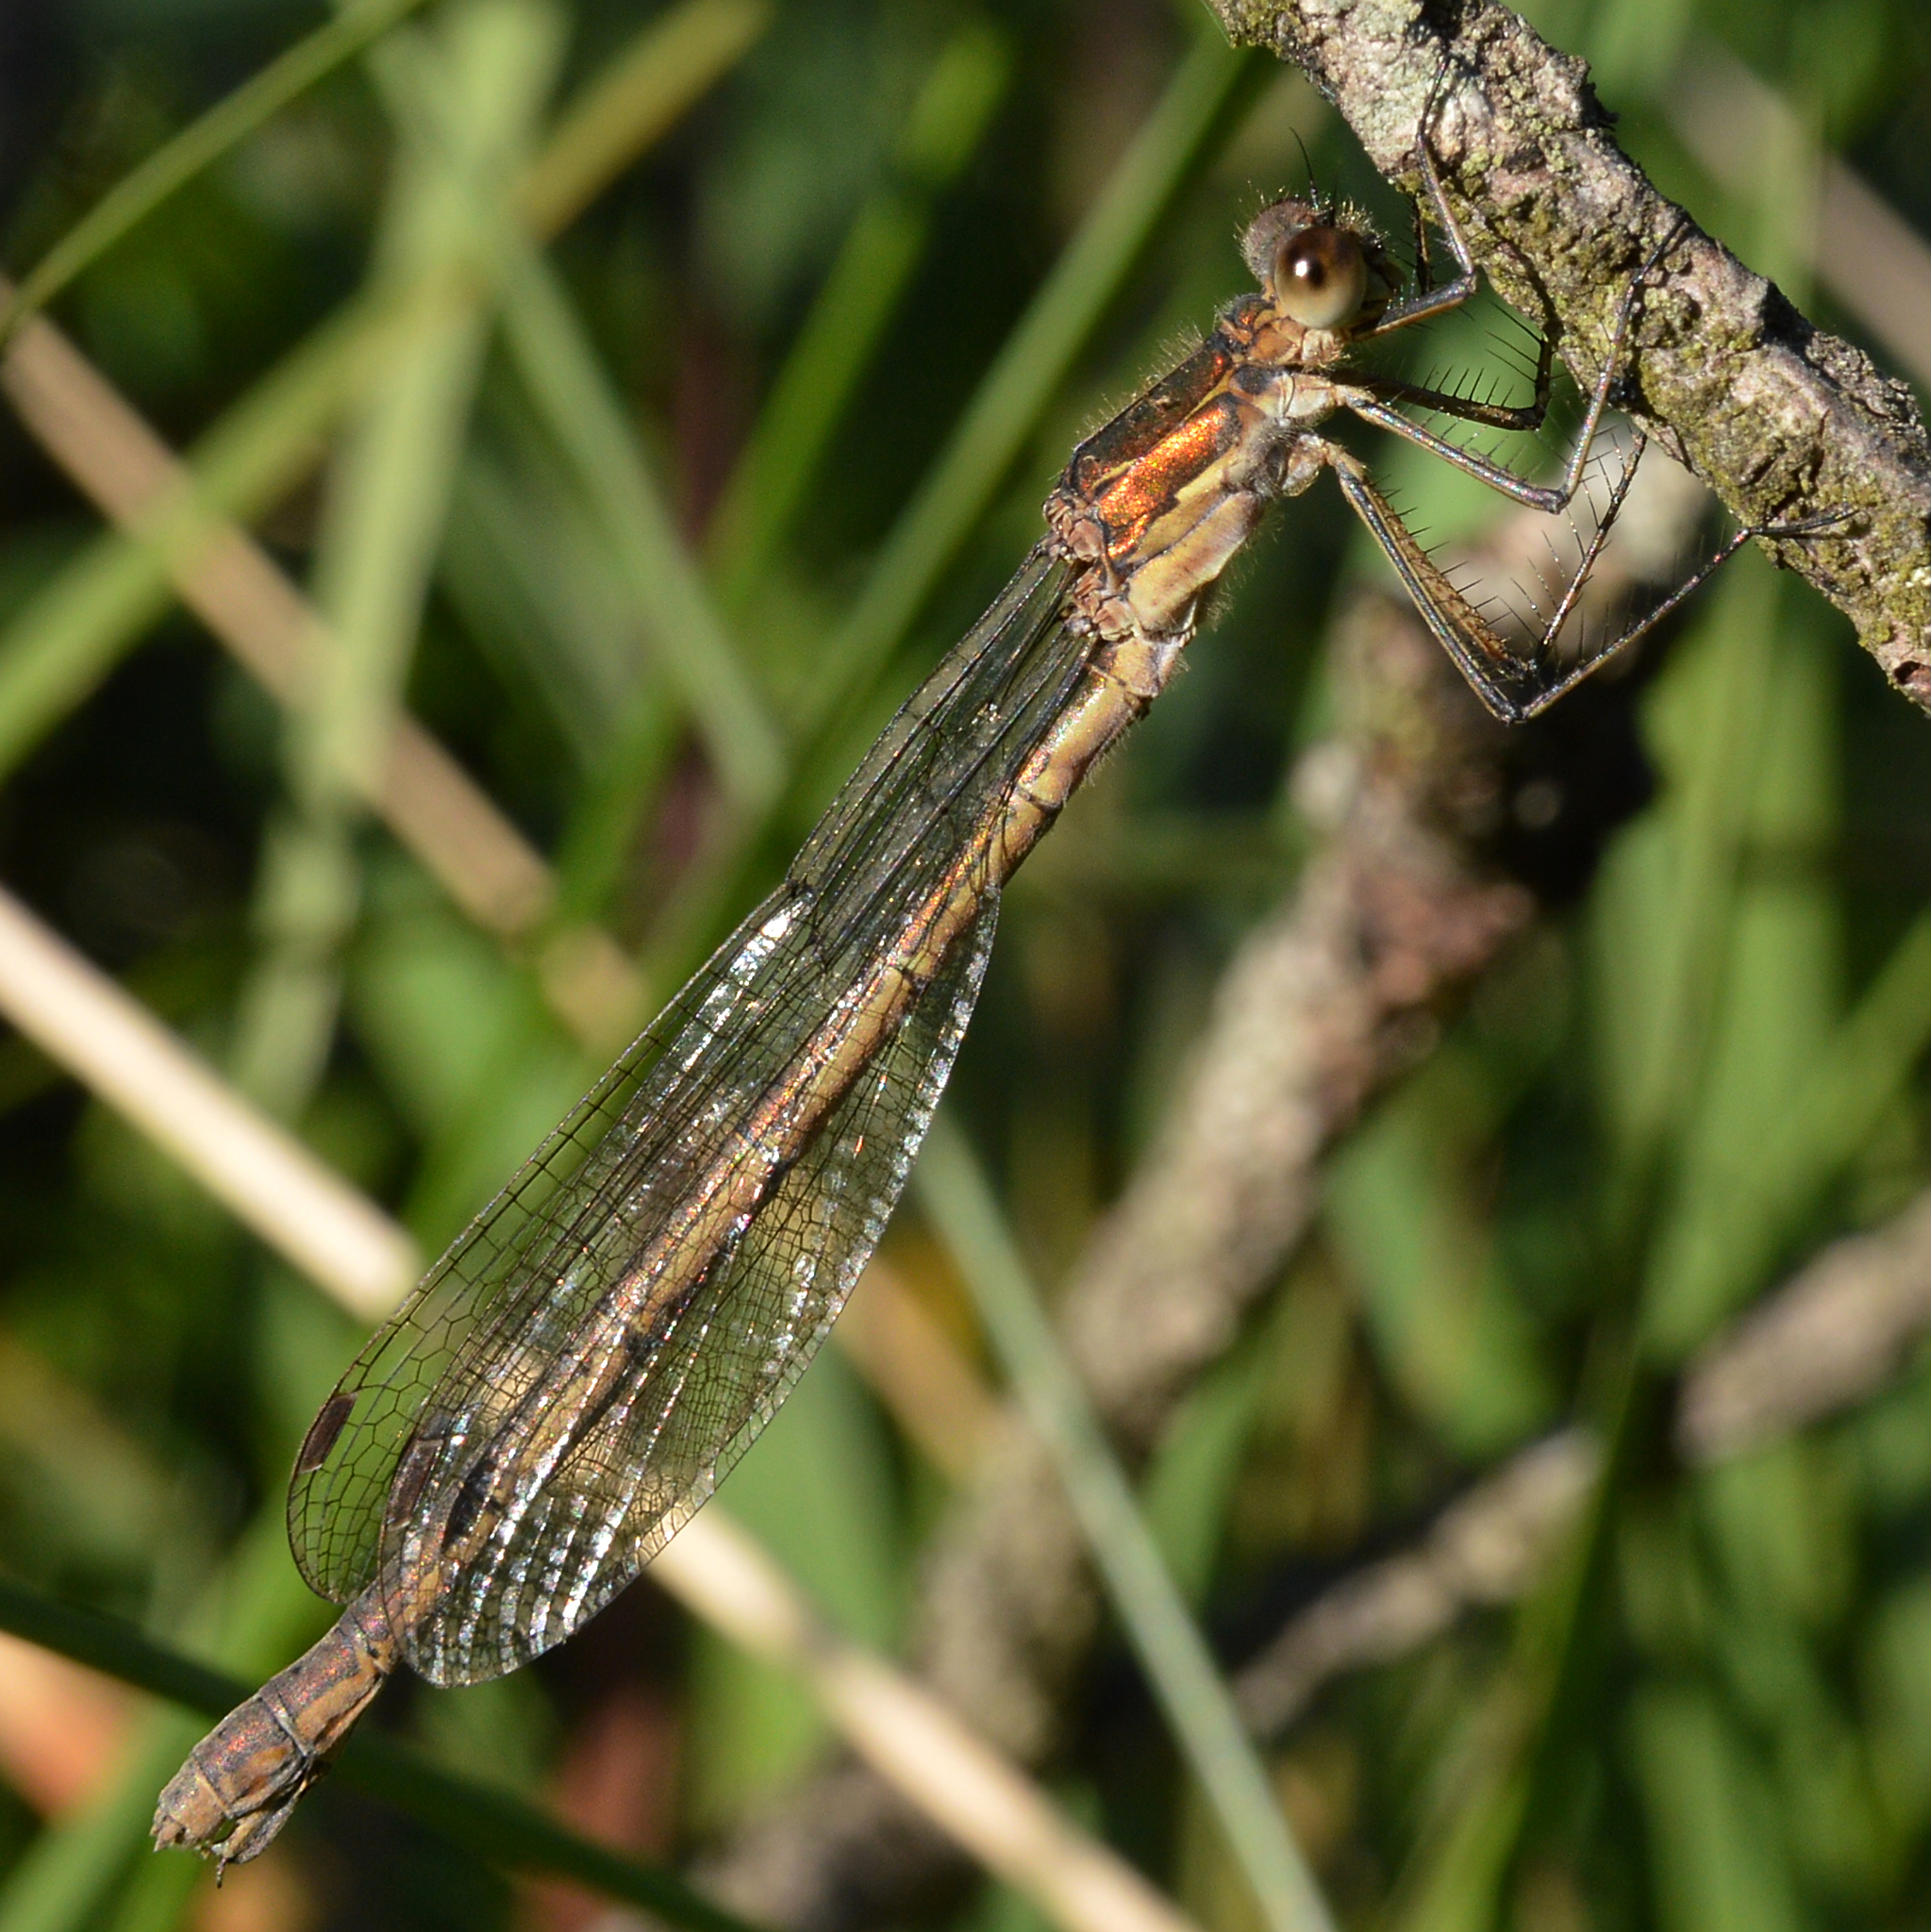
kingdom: Animalia
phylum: Arthropoda
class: Insecta
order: Odonata
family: Lestidae
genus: Lestes
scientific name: Lestes sponsa
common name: Common spreadwing
